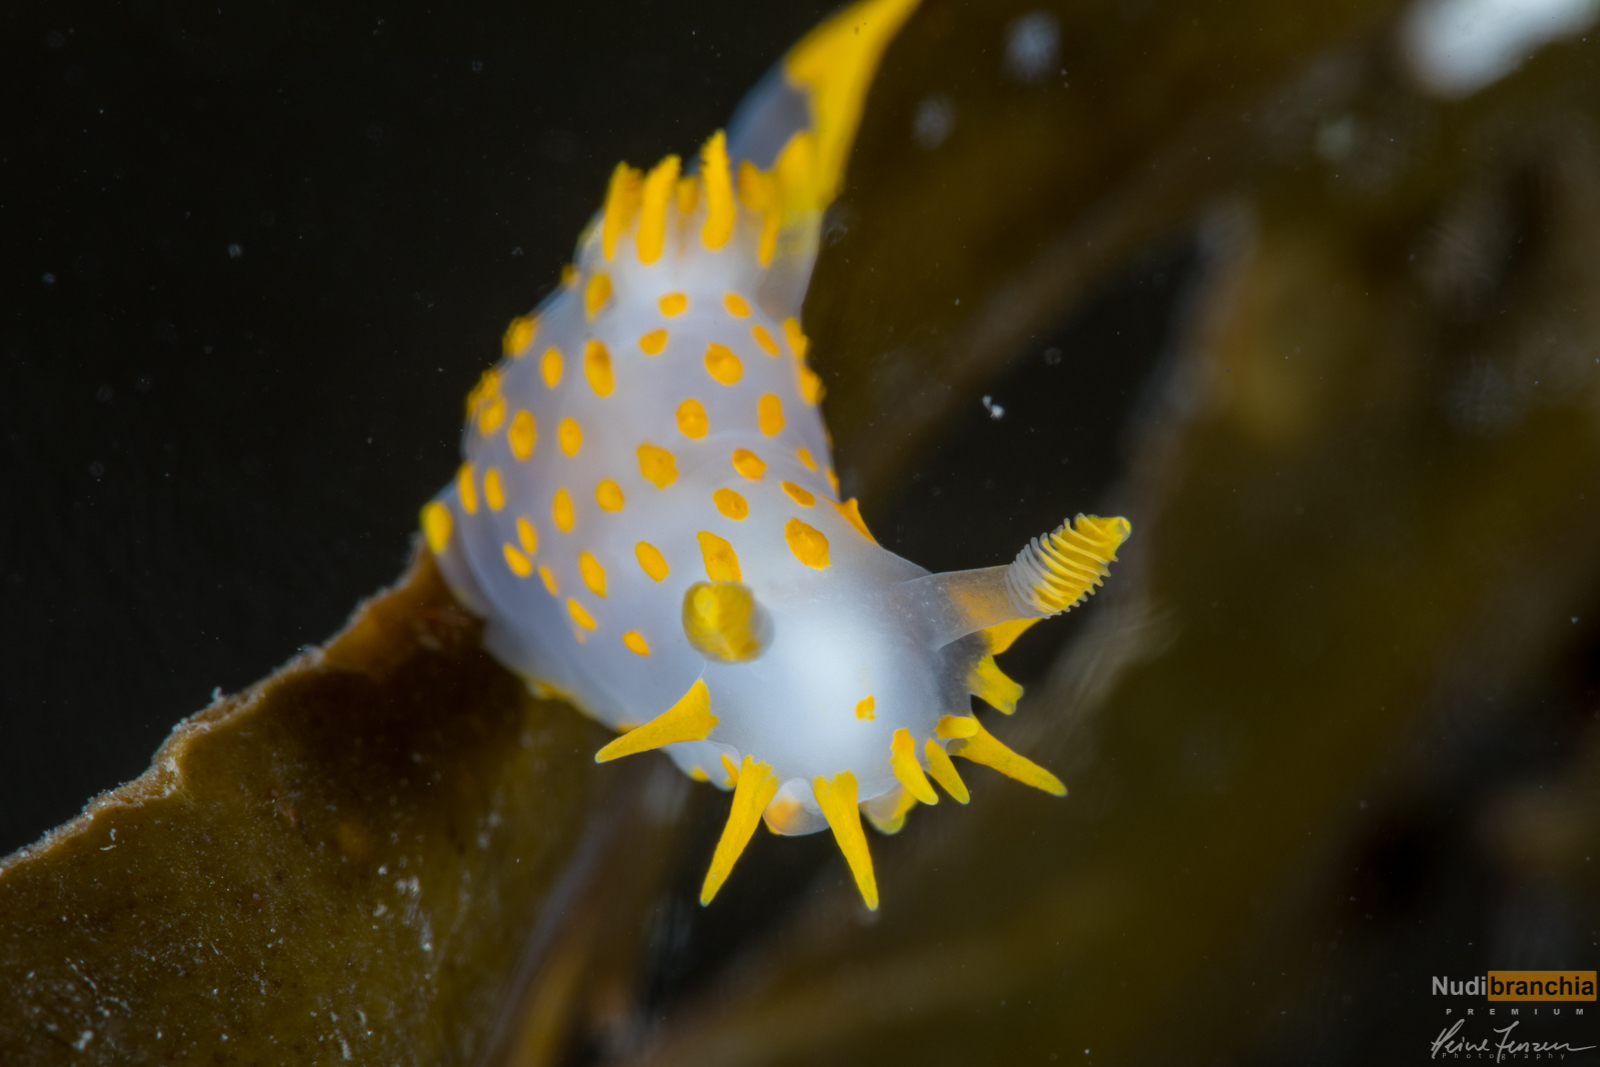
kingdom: Animalia
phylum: Mollusca
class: Gastropoda
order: Nudibranchia
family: Polyceridae
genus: Polycera
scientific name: Polycera quadrilineata
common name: Four-striped polycera
